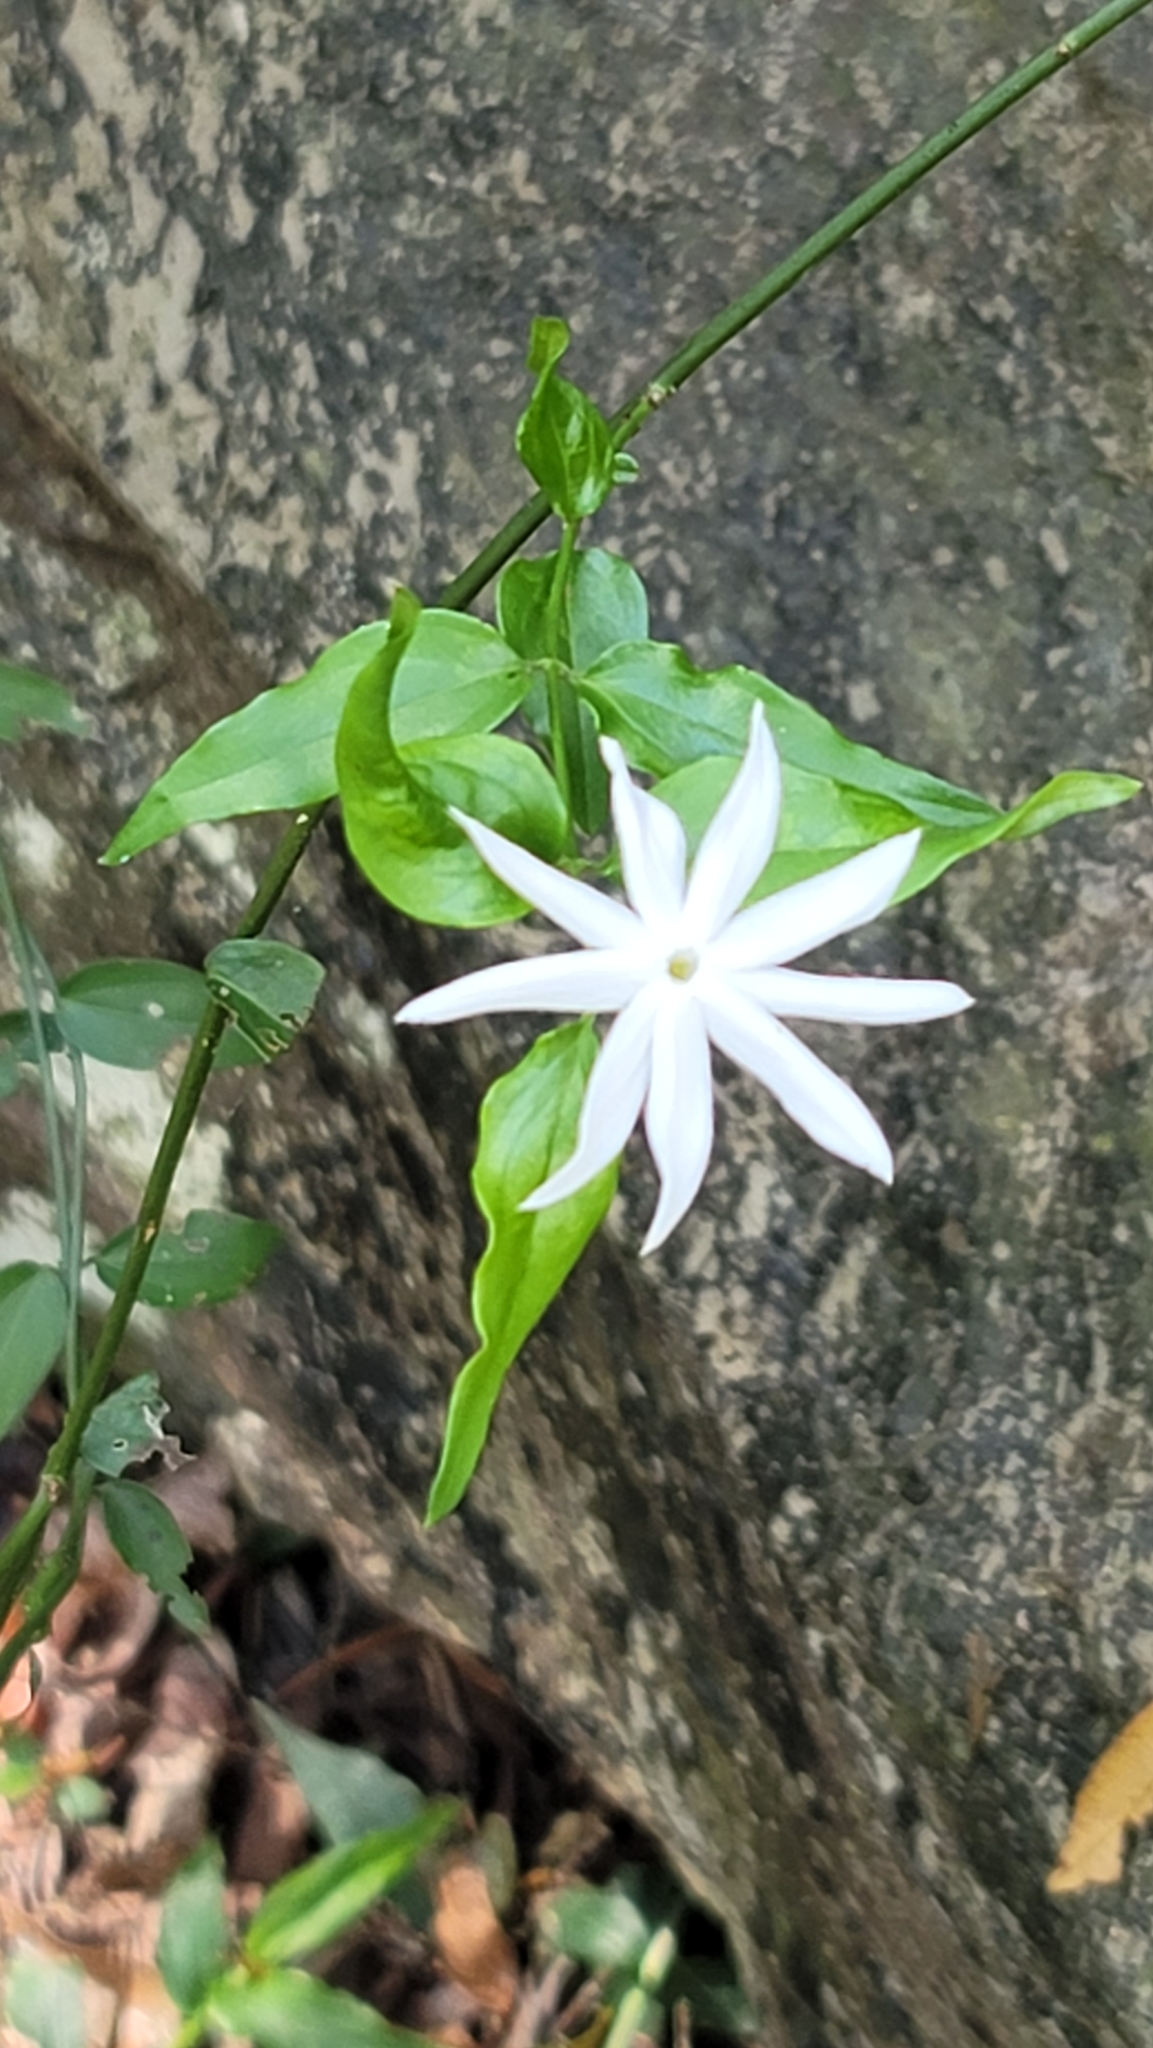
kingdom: Plantae
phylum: Tracheophyta
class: Magnoliopsida
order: Lamiales
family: Oleaceae
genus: Jasminum
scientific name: Jasminum nervosum
